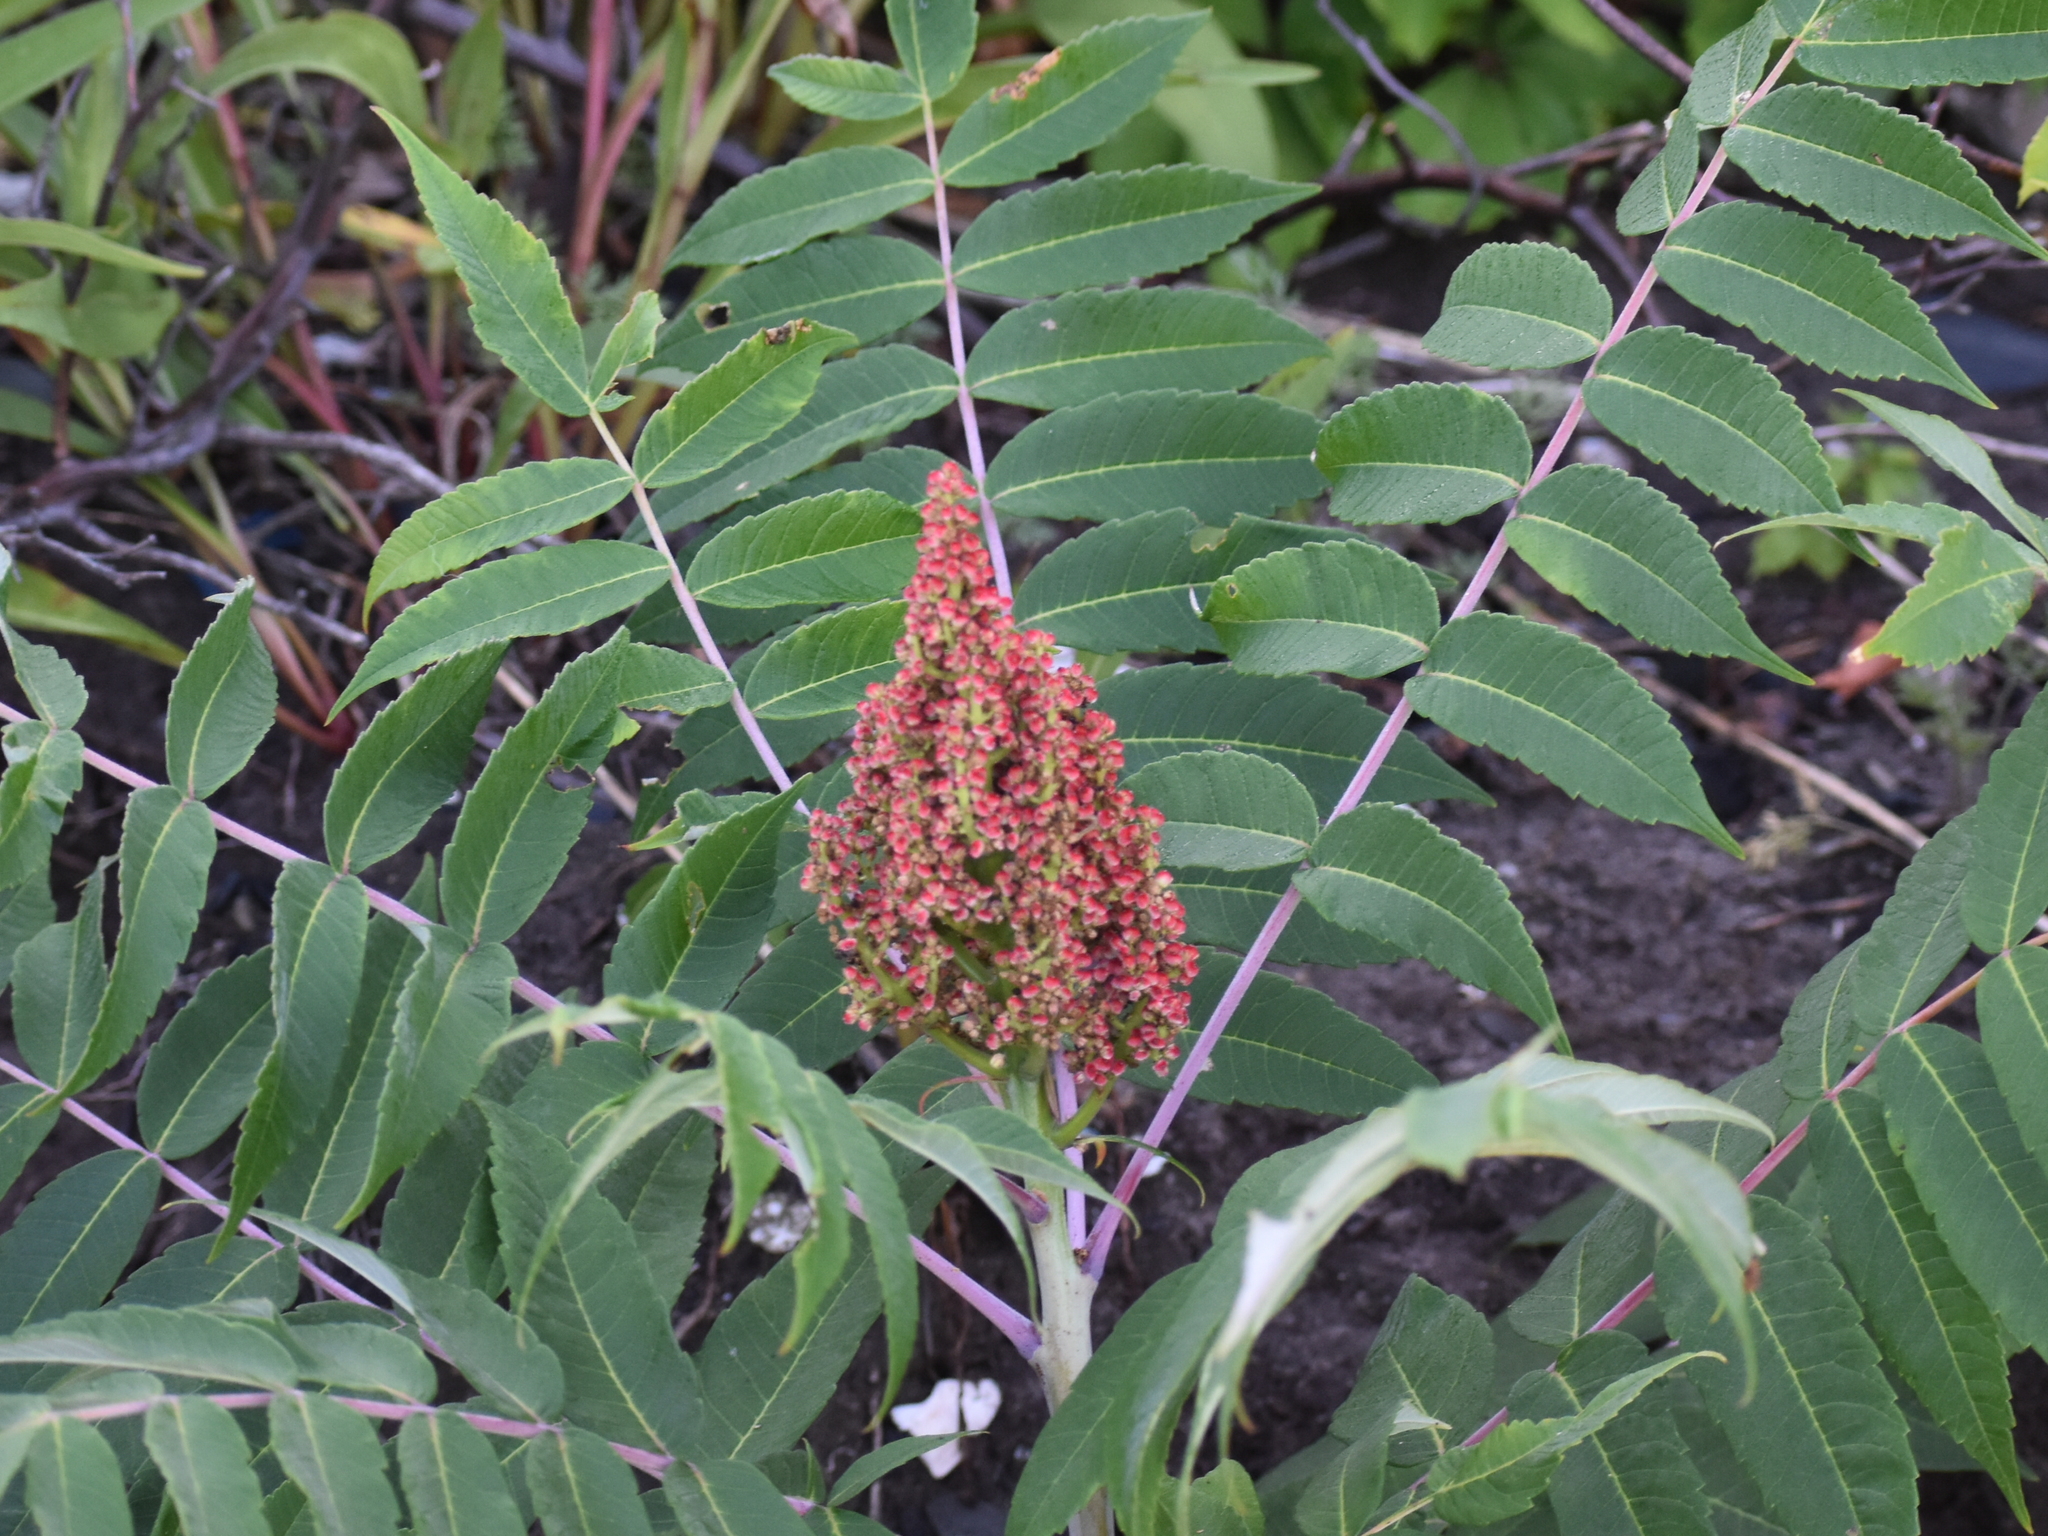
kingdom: Plantae
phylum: Tracheophyta
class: Magnoliopsida
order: Sapindales
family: Anacardiaceae
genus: Rhus
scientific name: Rhus glabra
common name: Scarlet sumac
